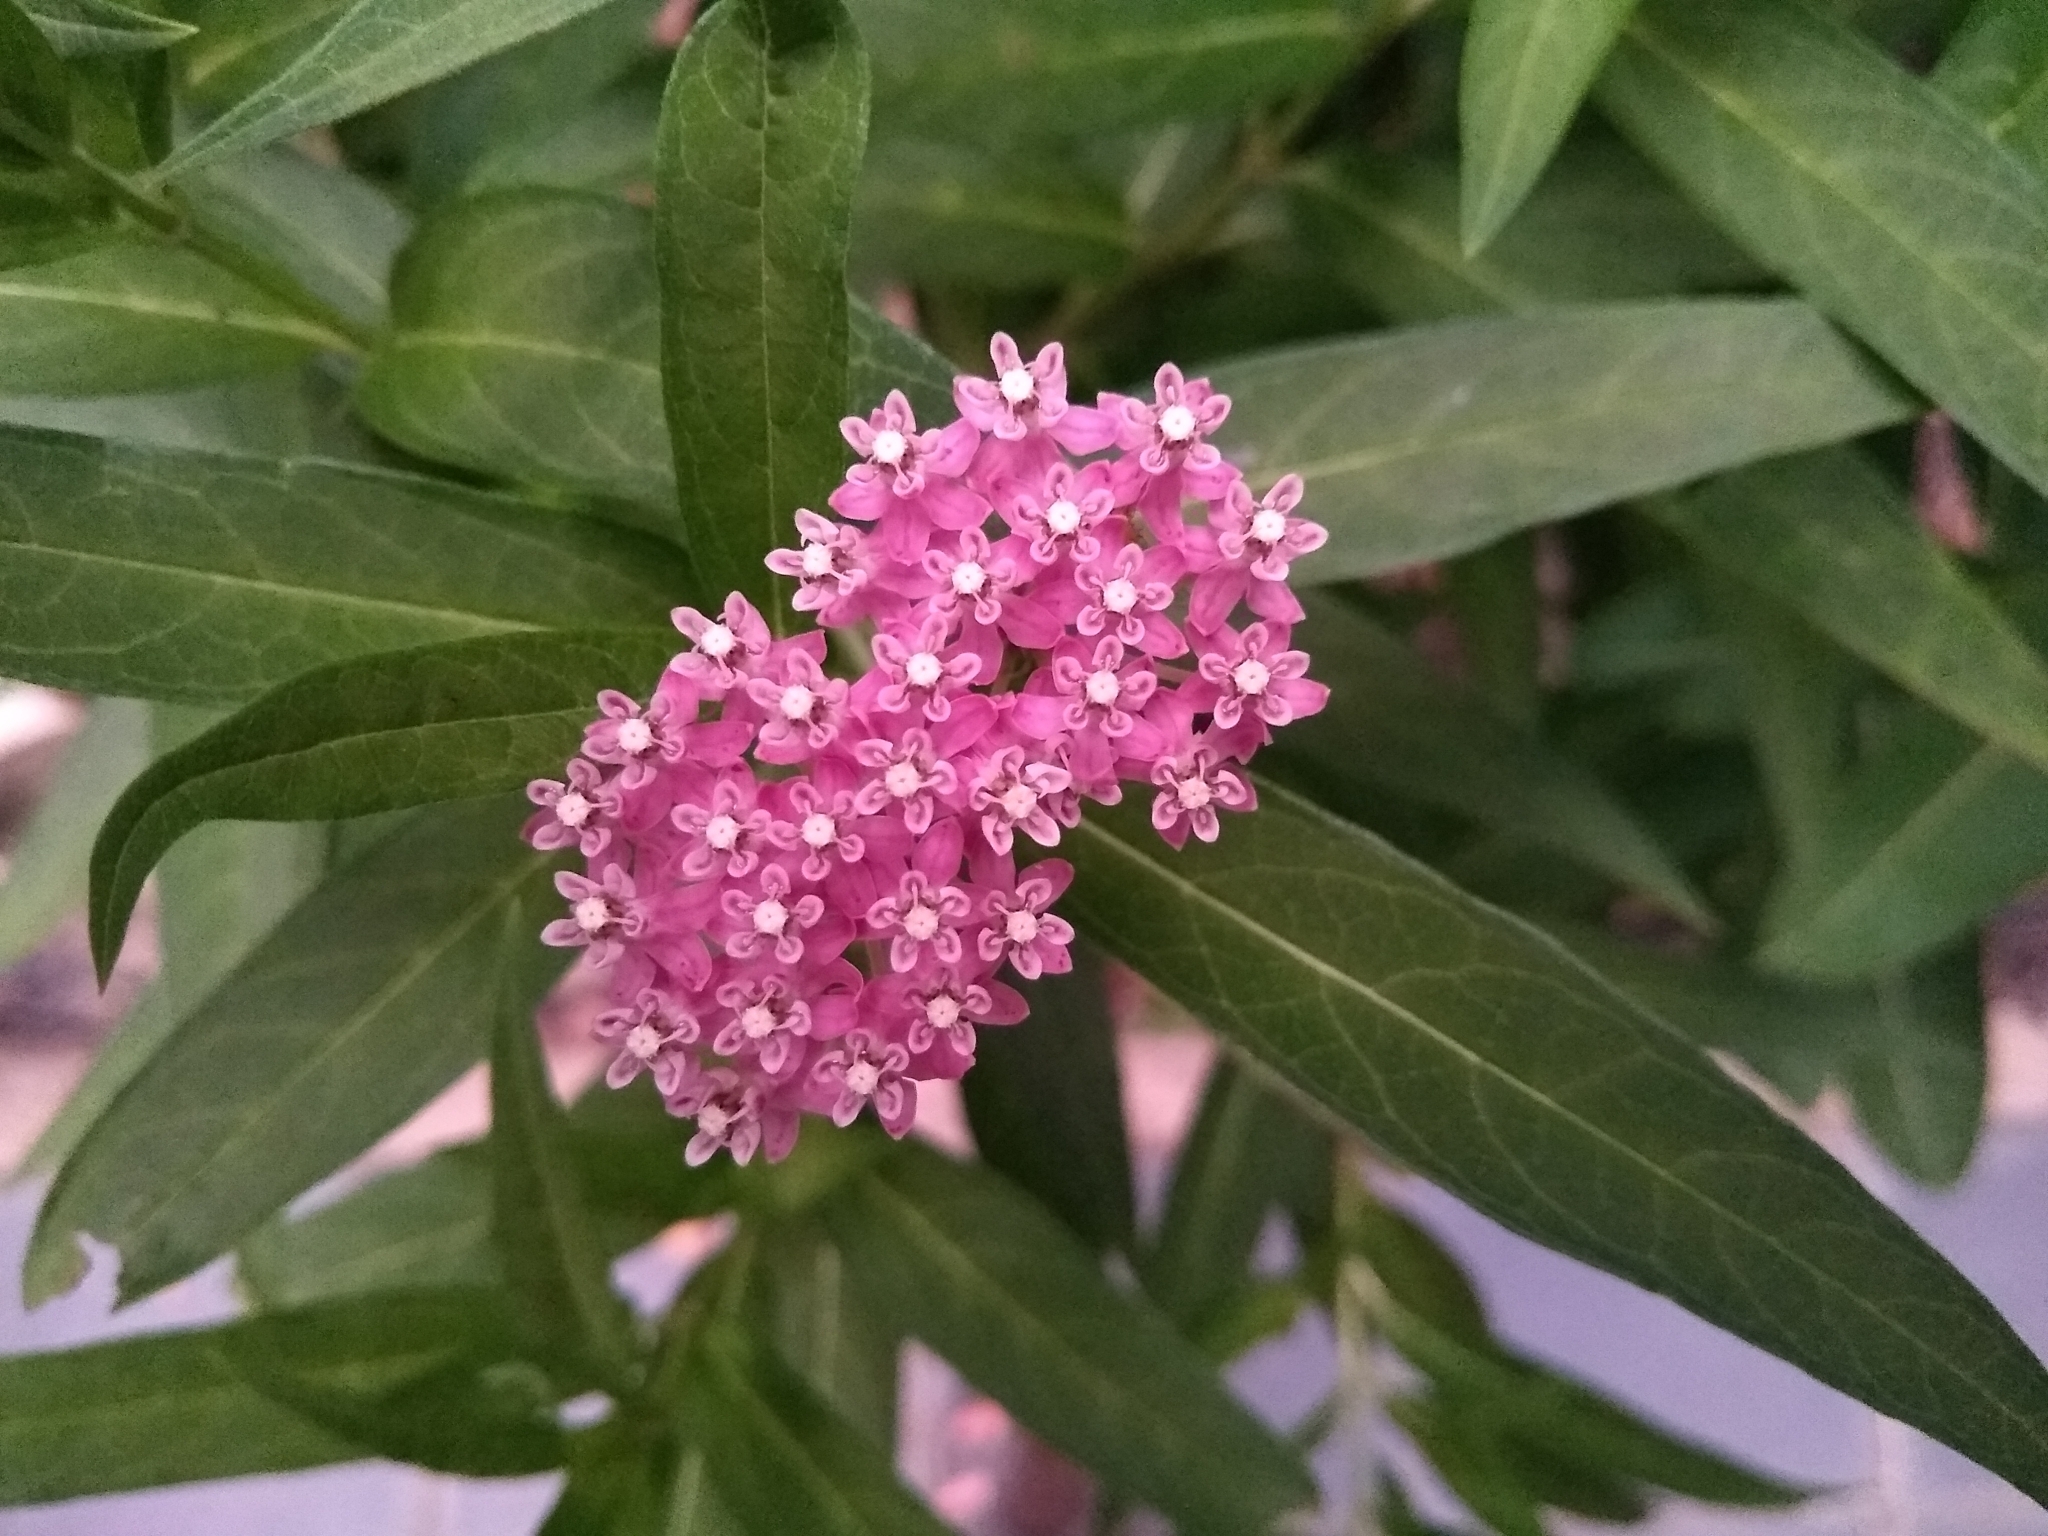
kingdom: Plantae
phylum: Tracheophyta
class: Magnoliopsida
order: Gentianales
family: Apocynaceae
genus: Asclepias
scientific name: Asclepias incarnata
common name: Swamp milkweed
